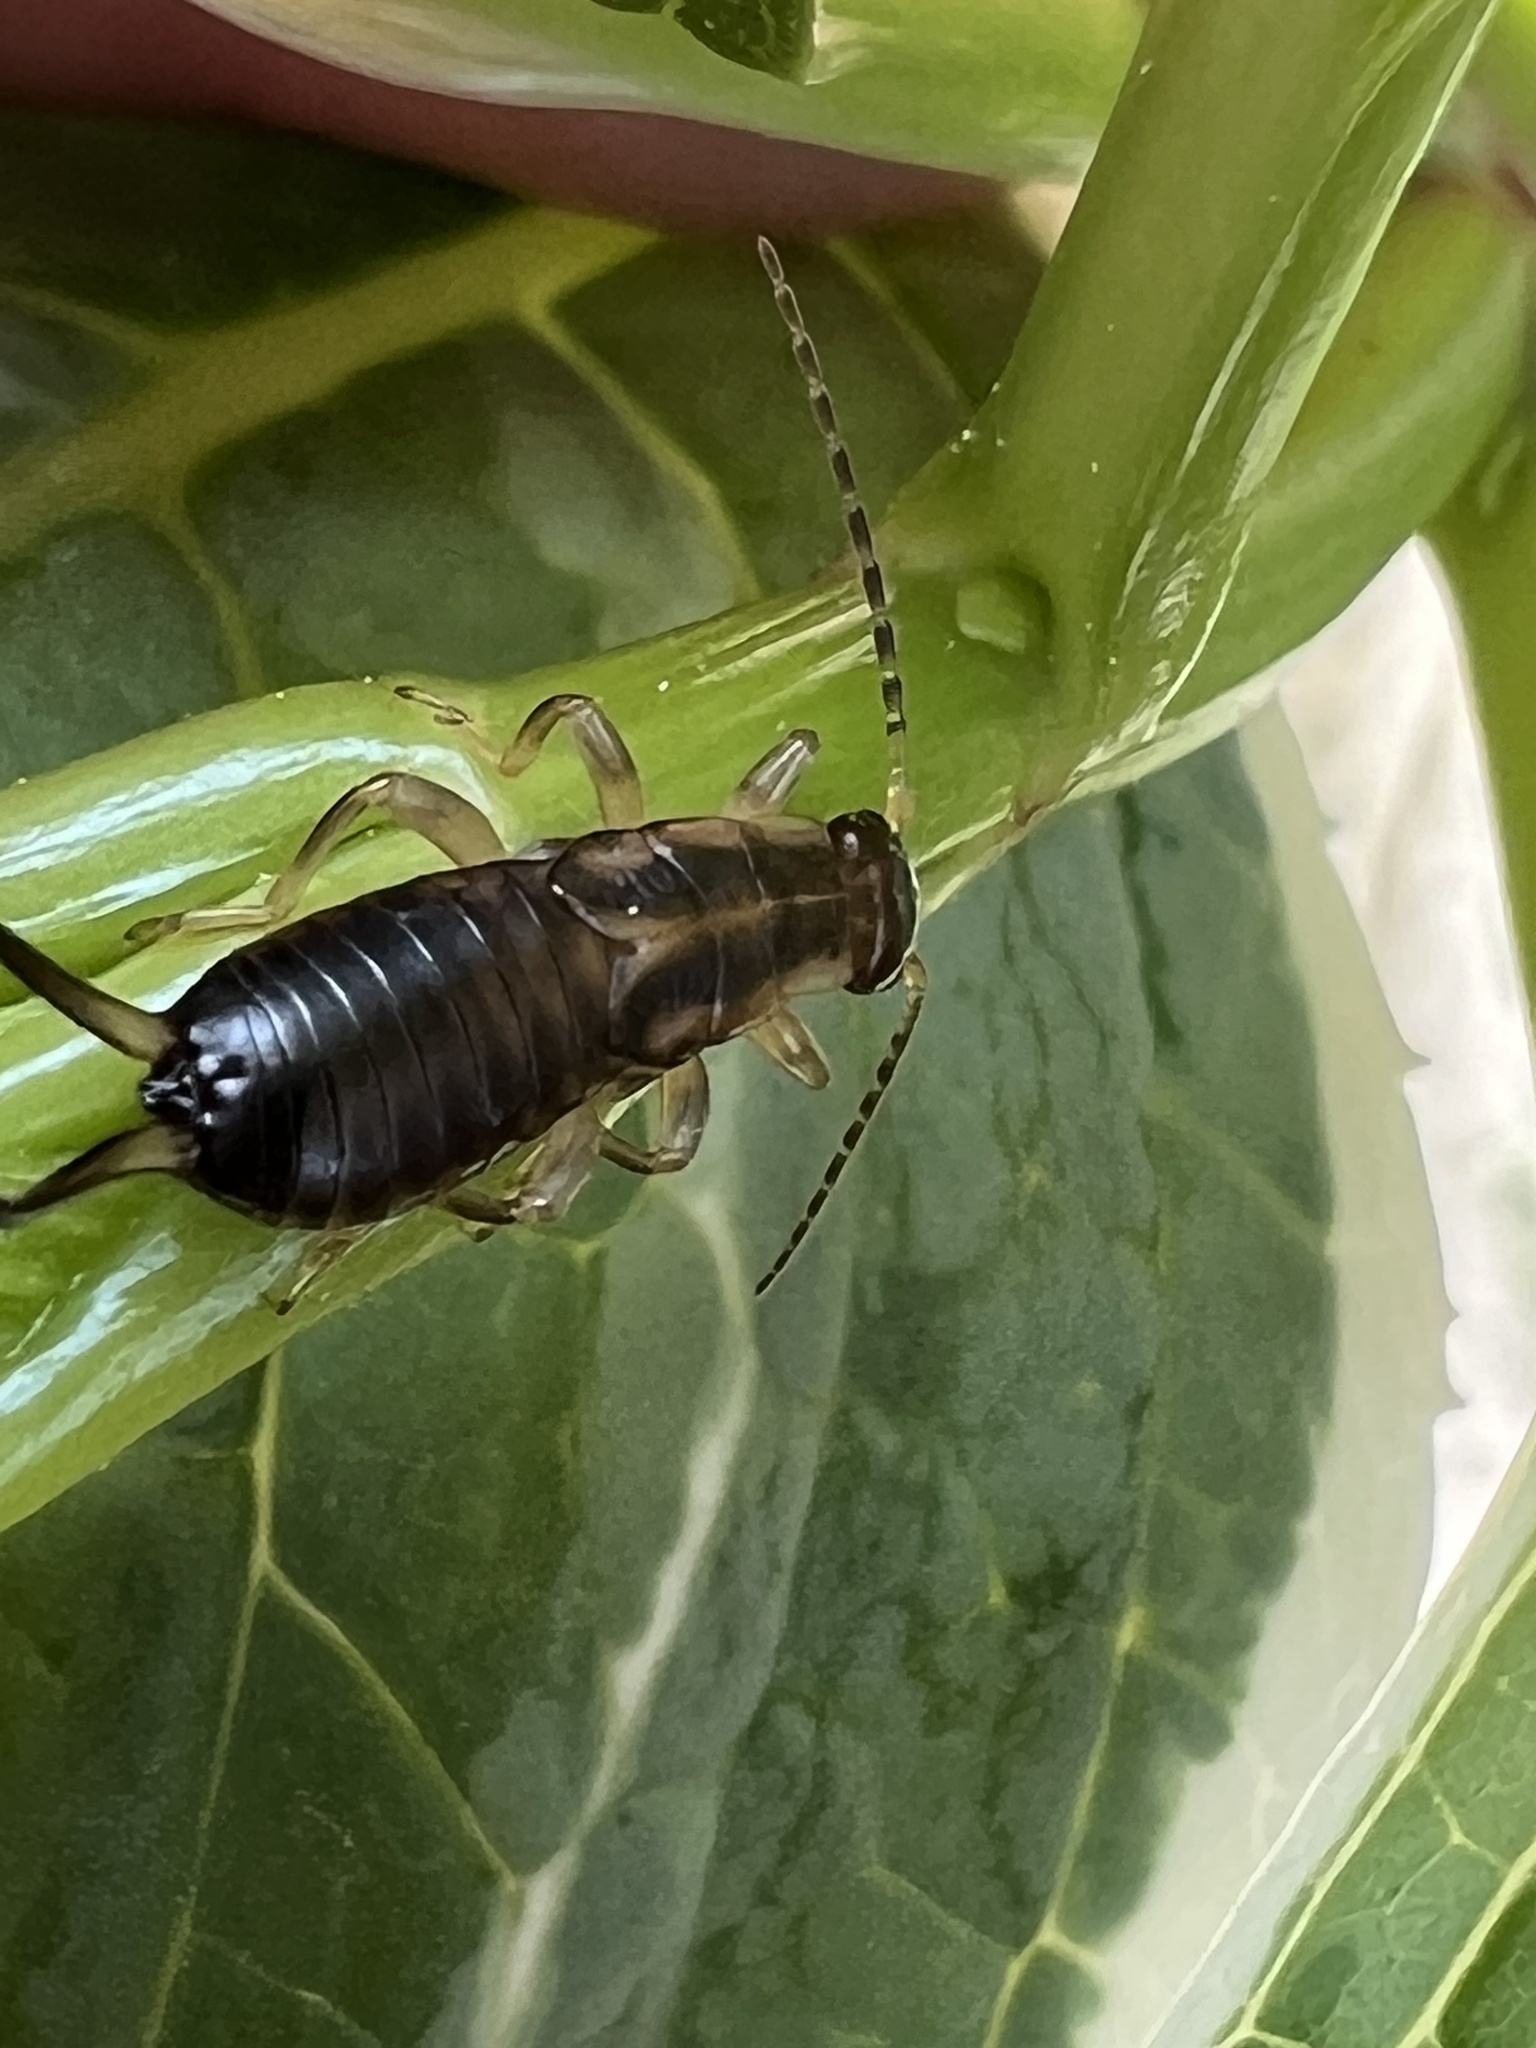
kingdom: Animalia
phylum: Arthropoda
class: Insecta
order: Dermaptera
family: Forficulidae
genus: Forficula
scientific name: Forficula
